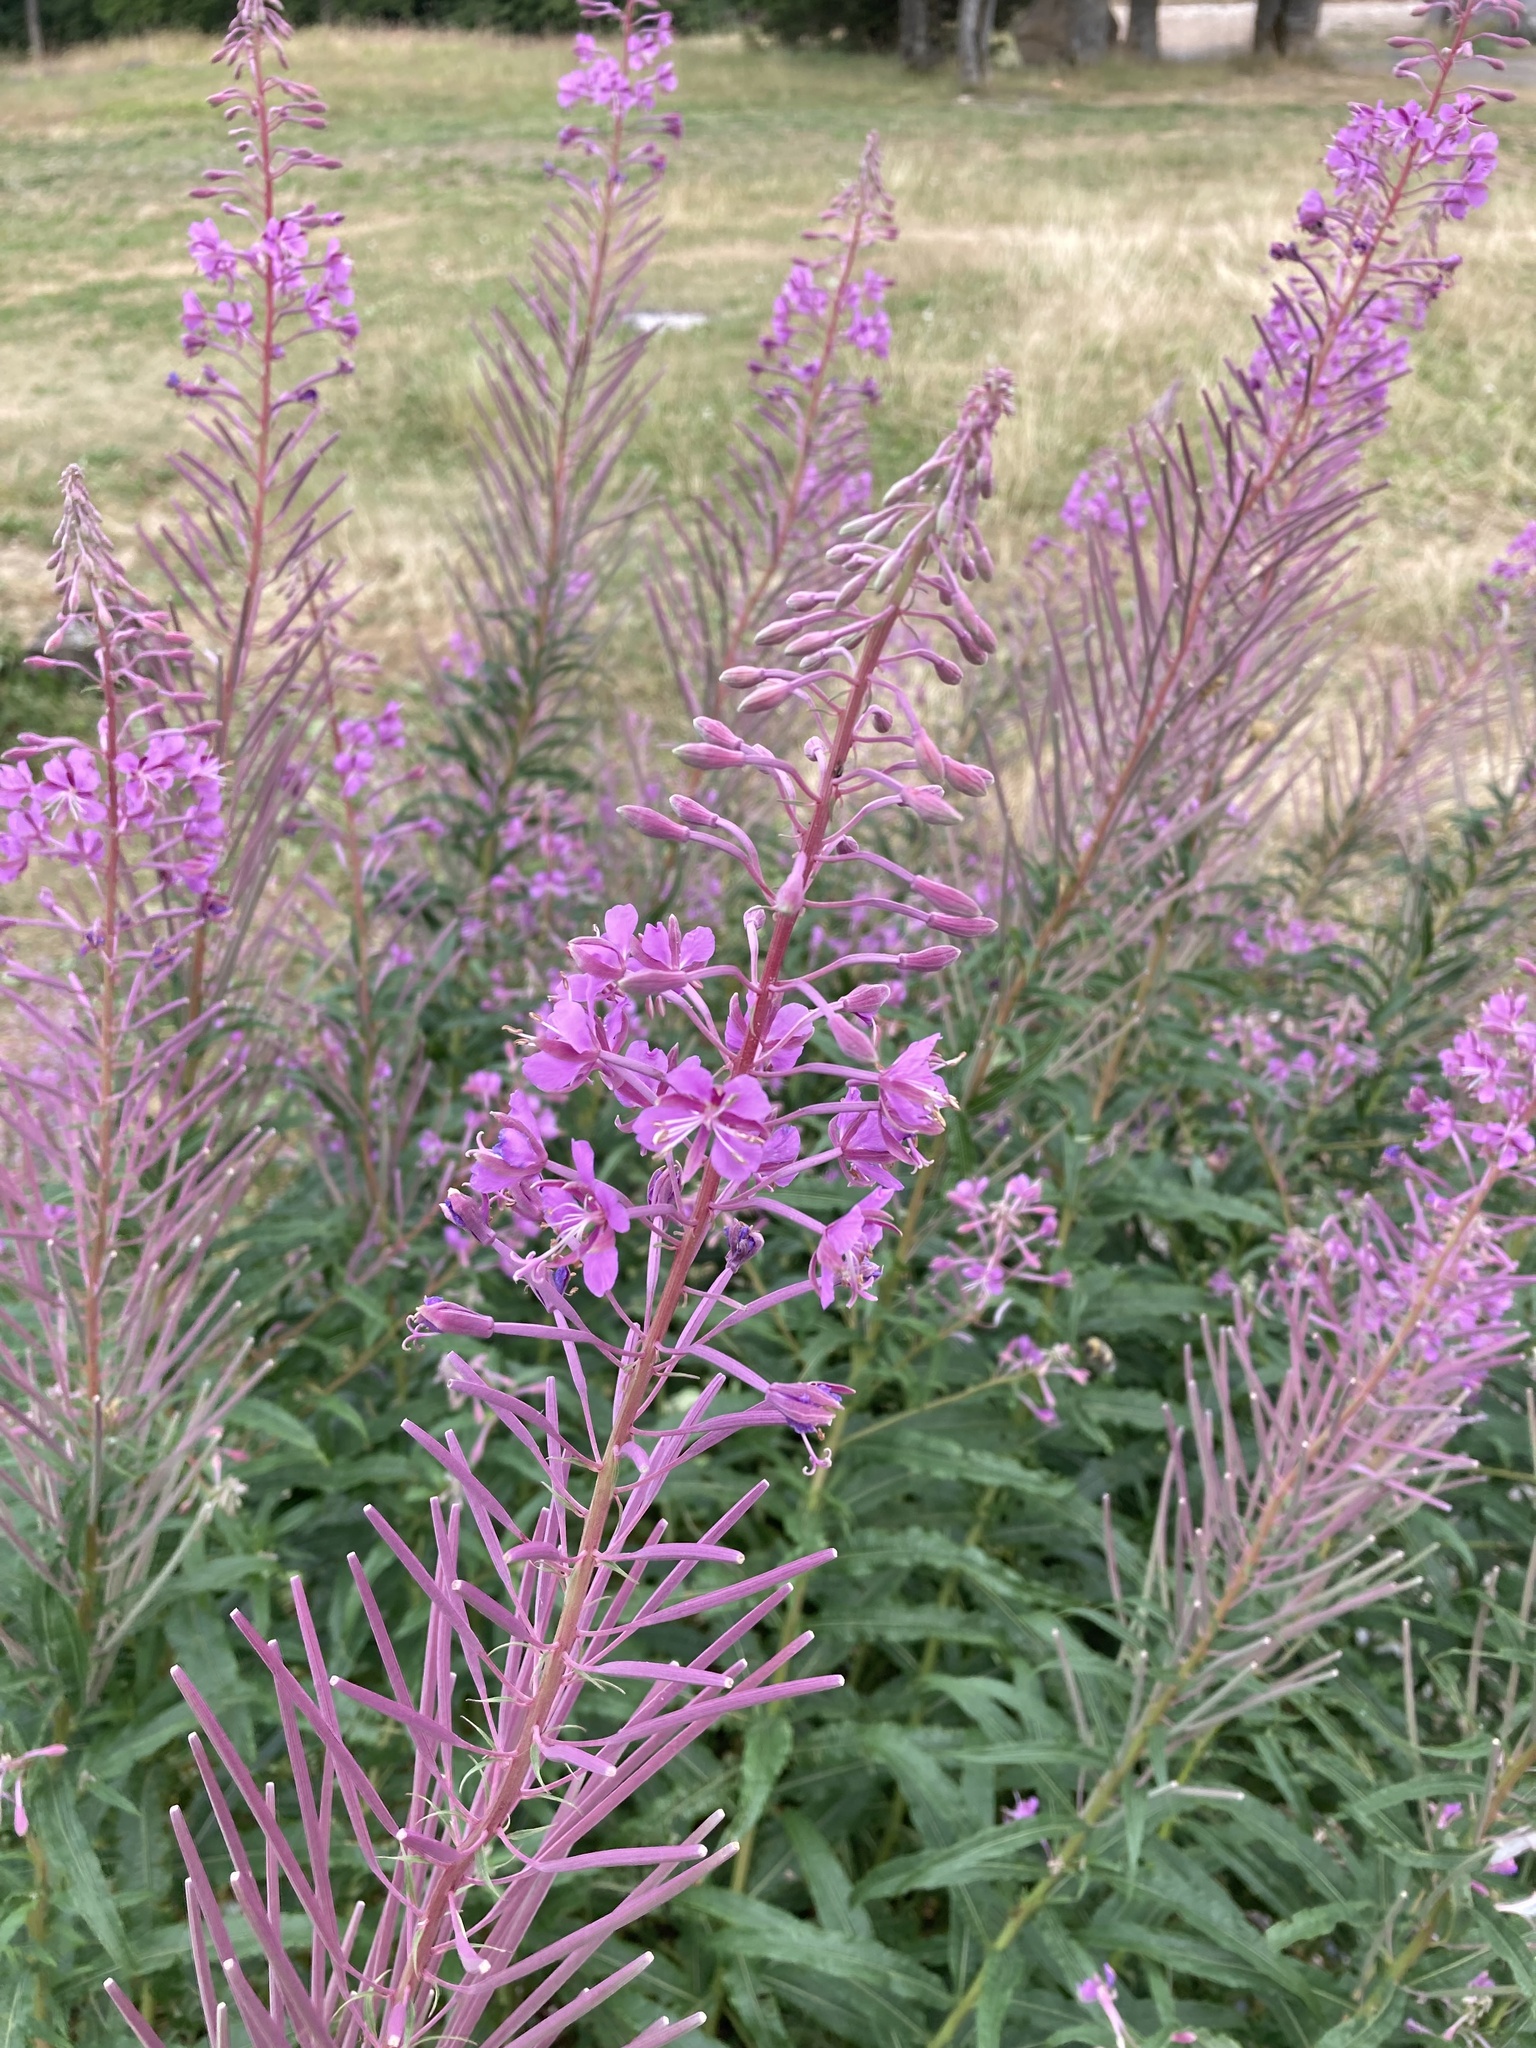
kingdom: Plantae
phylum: Tracheophyta
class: Magnoliopsida
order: Myrtales
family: Onagraceae
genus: Chamaenerion
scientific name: Chamaenerion angustifolium
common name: Fireweed
